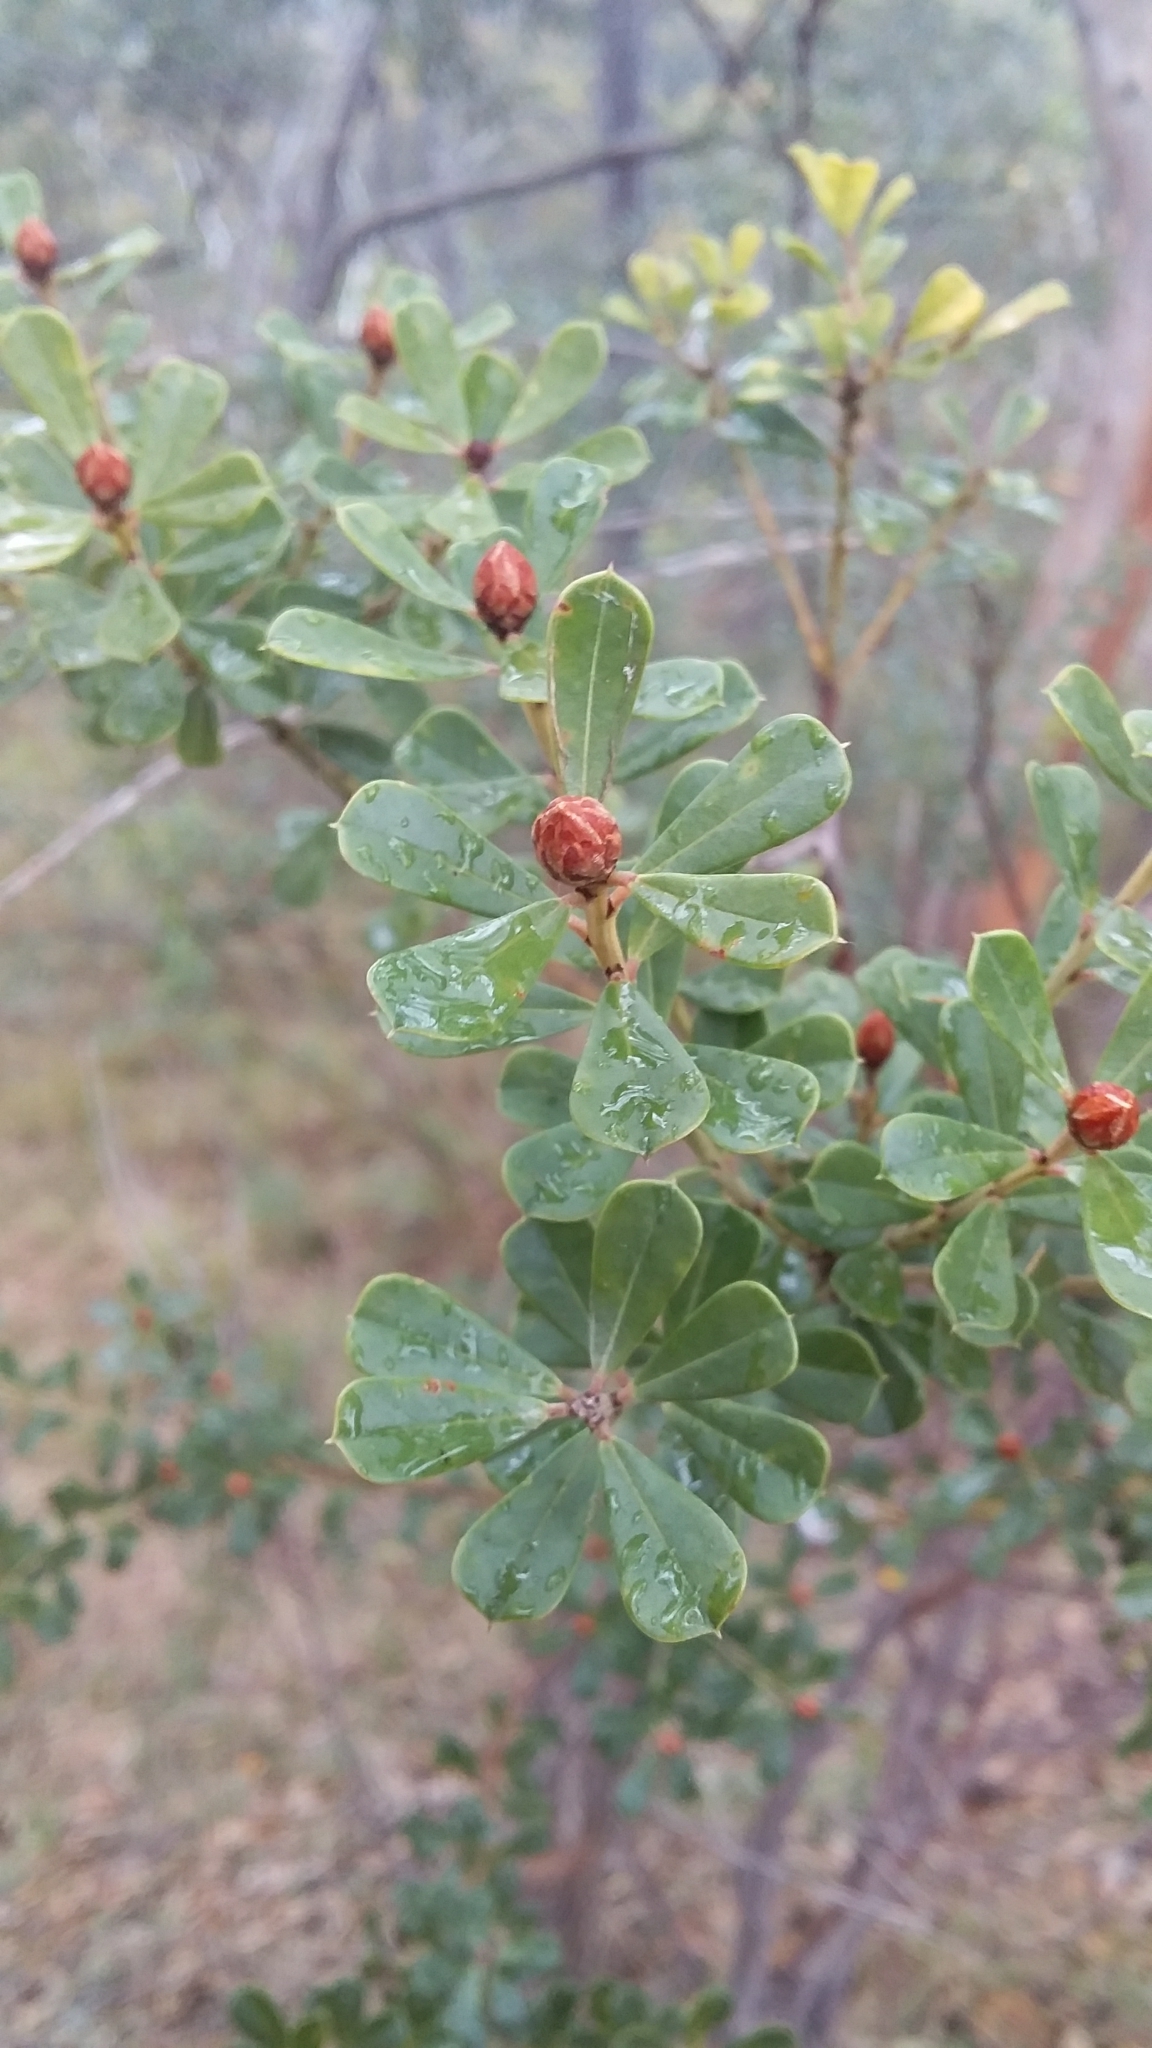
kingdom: Plantae
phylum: Tracheophyta
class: Magnoliopsida
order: Fabales
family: Fabaceae
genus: Pultenaea
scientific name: Pultenaea daphnoides
